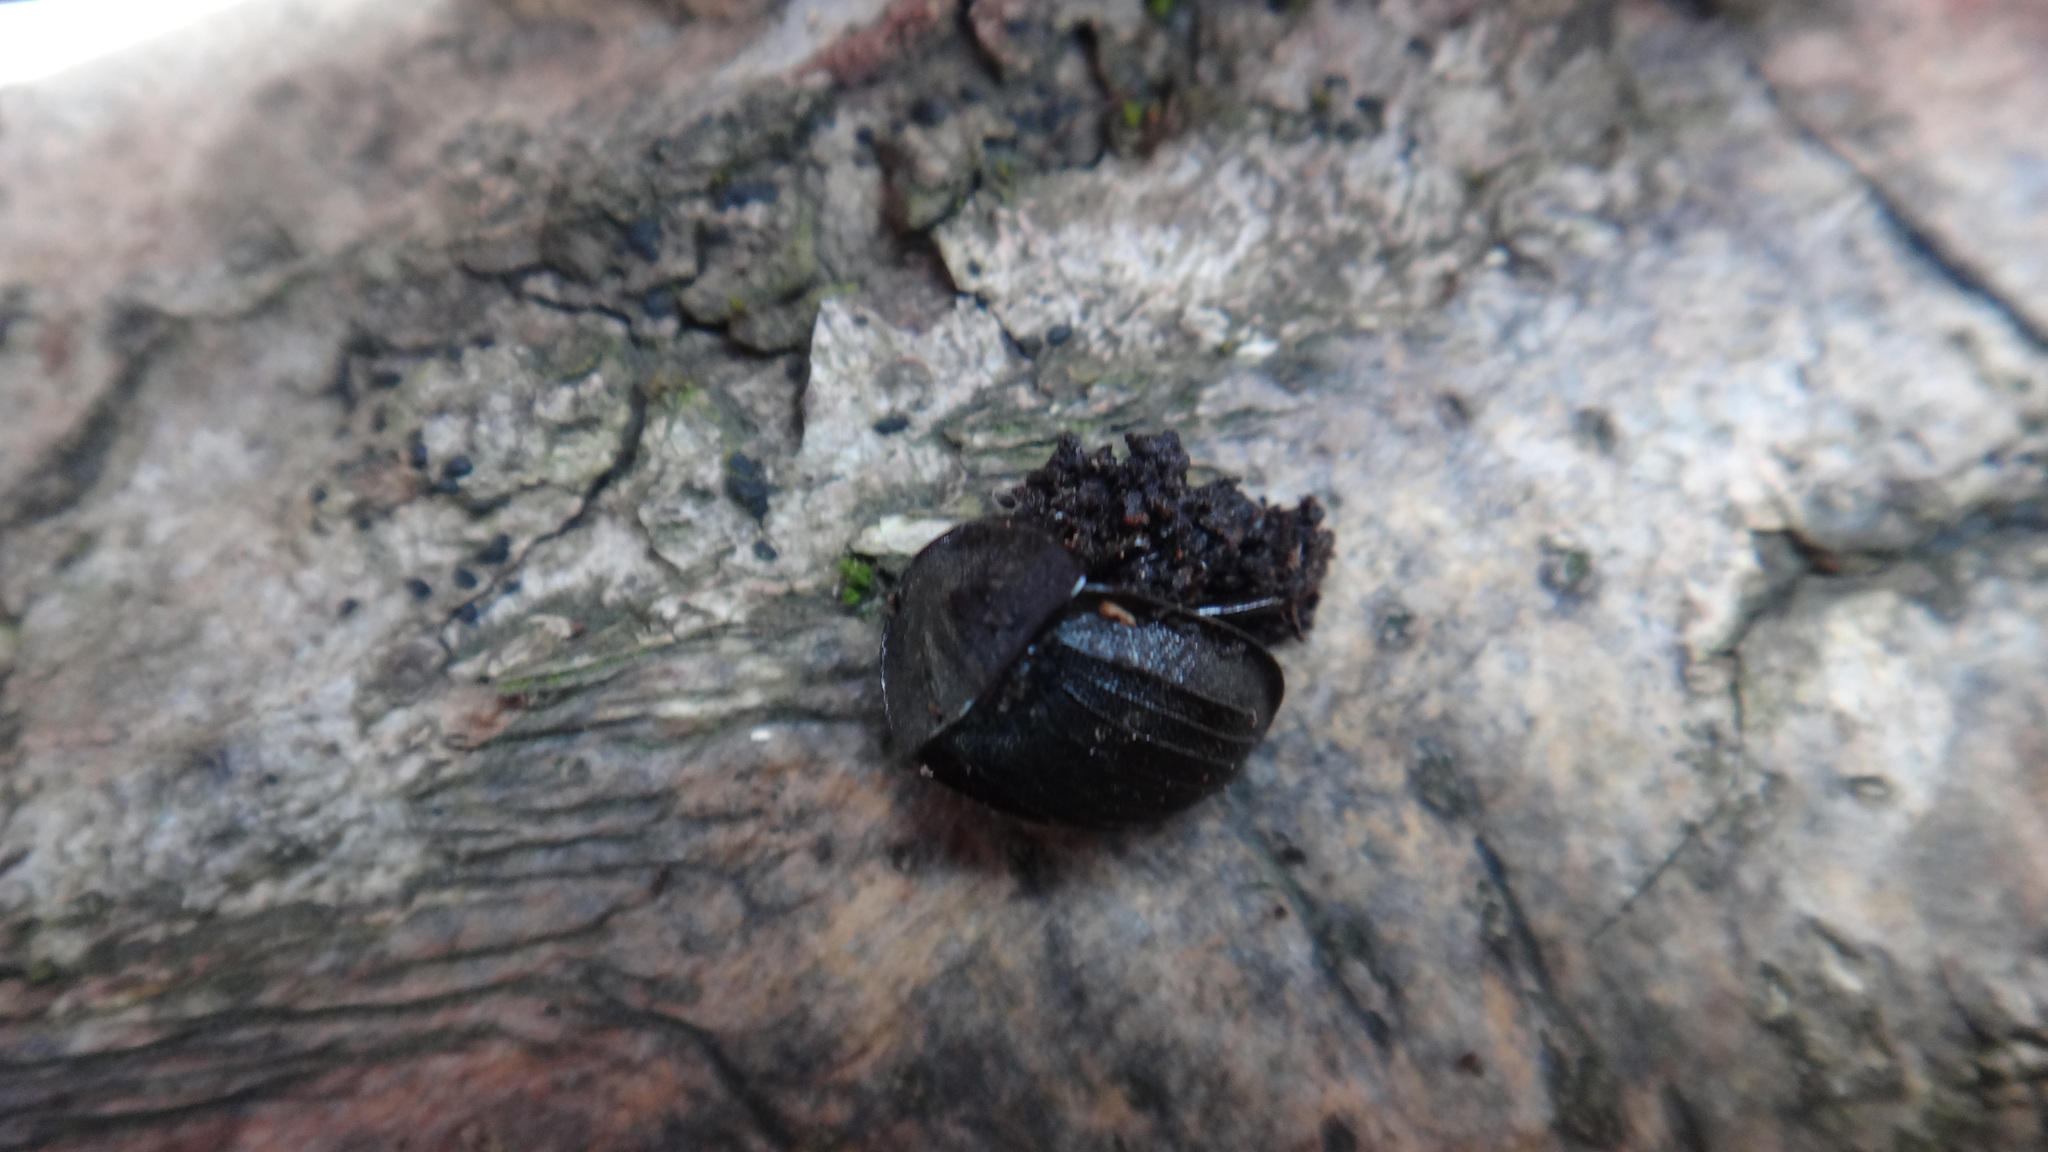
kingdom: Animalia
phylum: Arthropoda
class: Insecta
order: Coleoptera
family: Staphylinidae
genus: Silpha
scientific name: Silpha atrata
